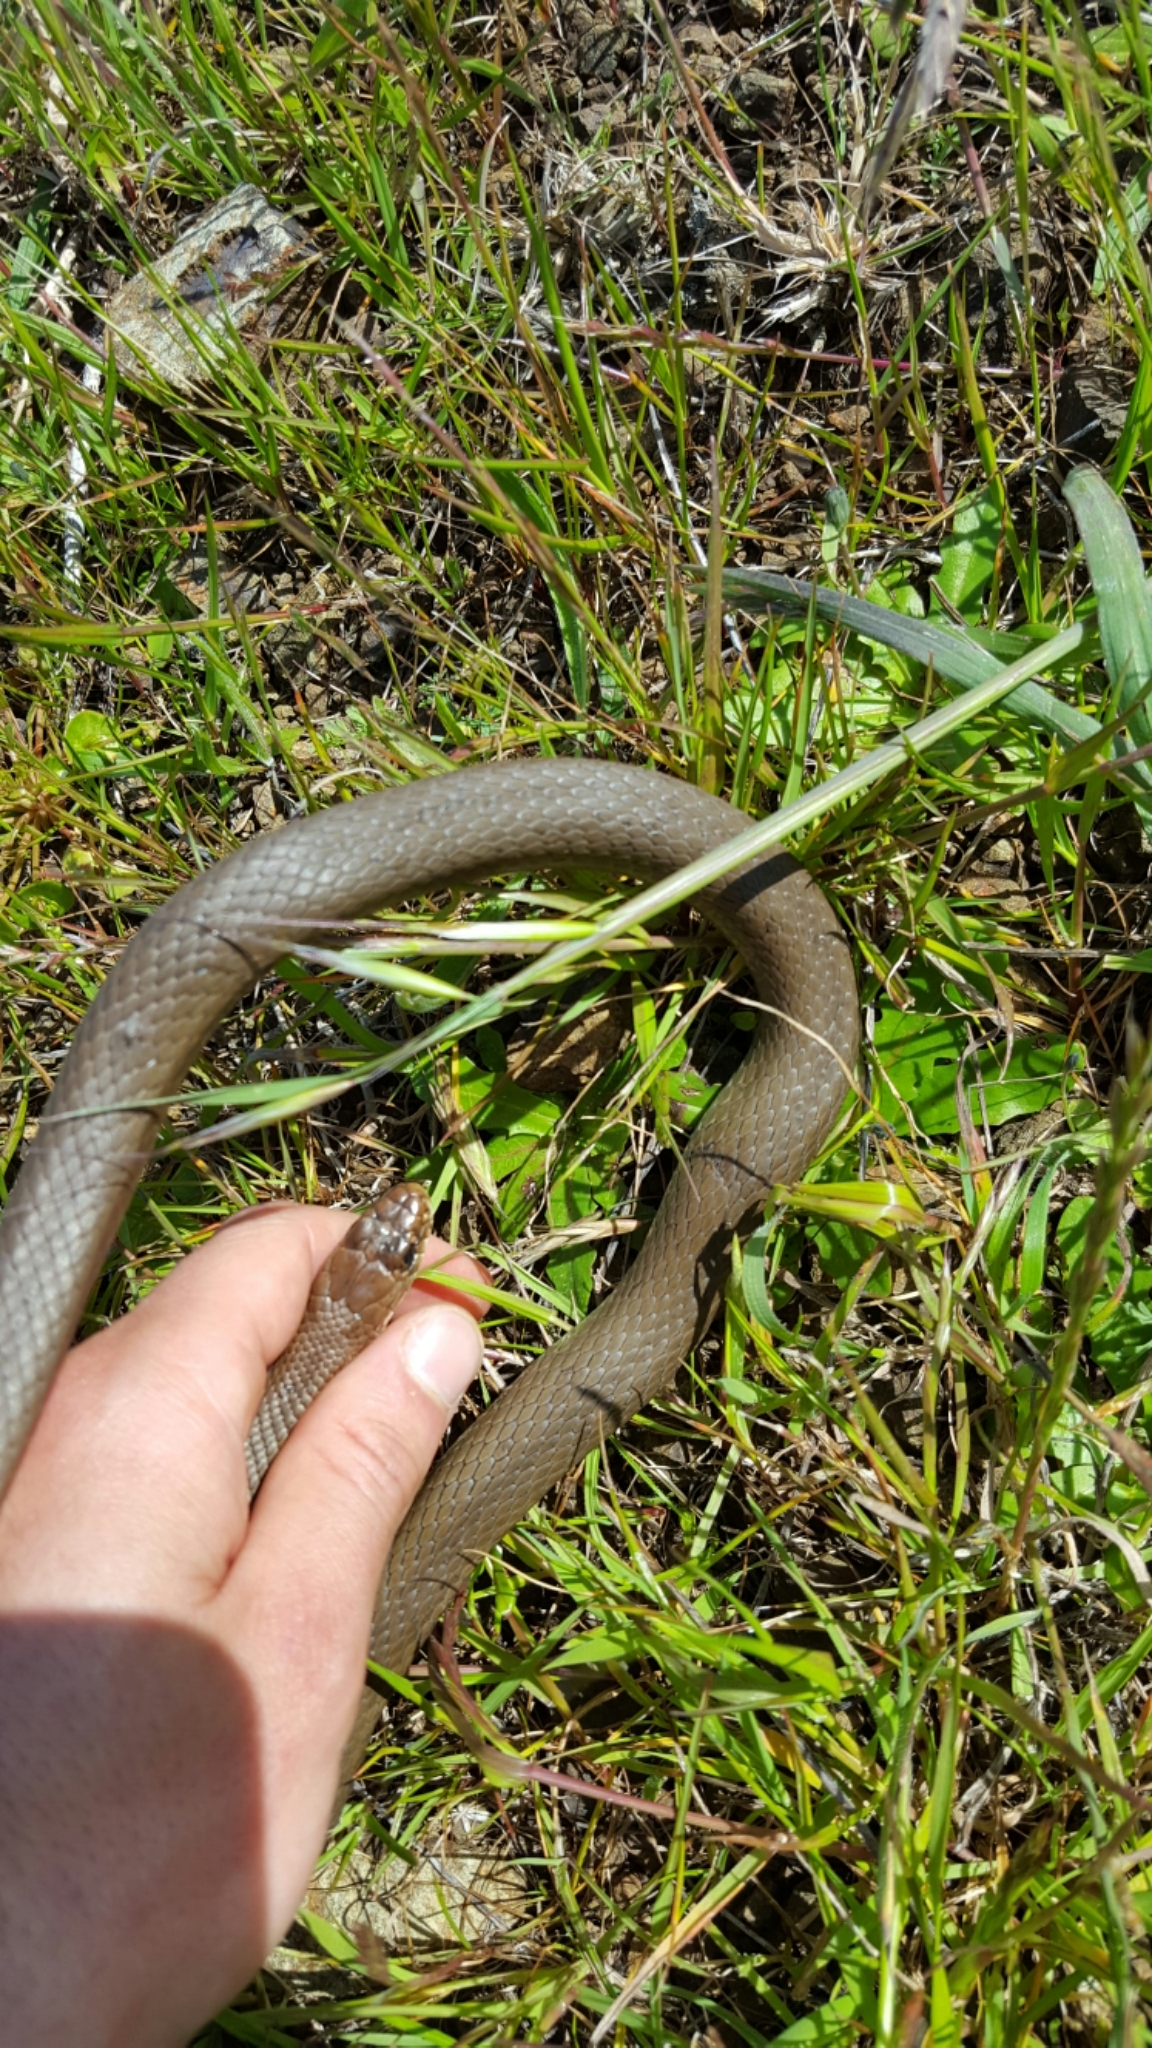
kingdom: Animalia
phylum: Chordata
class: Squamata
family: Colubridae
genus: Coluber
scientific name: Coluber constrictor
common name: Eastern racer
